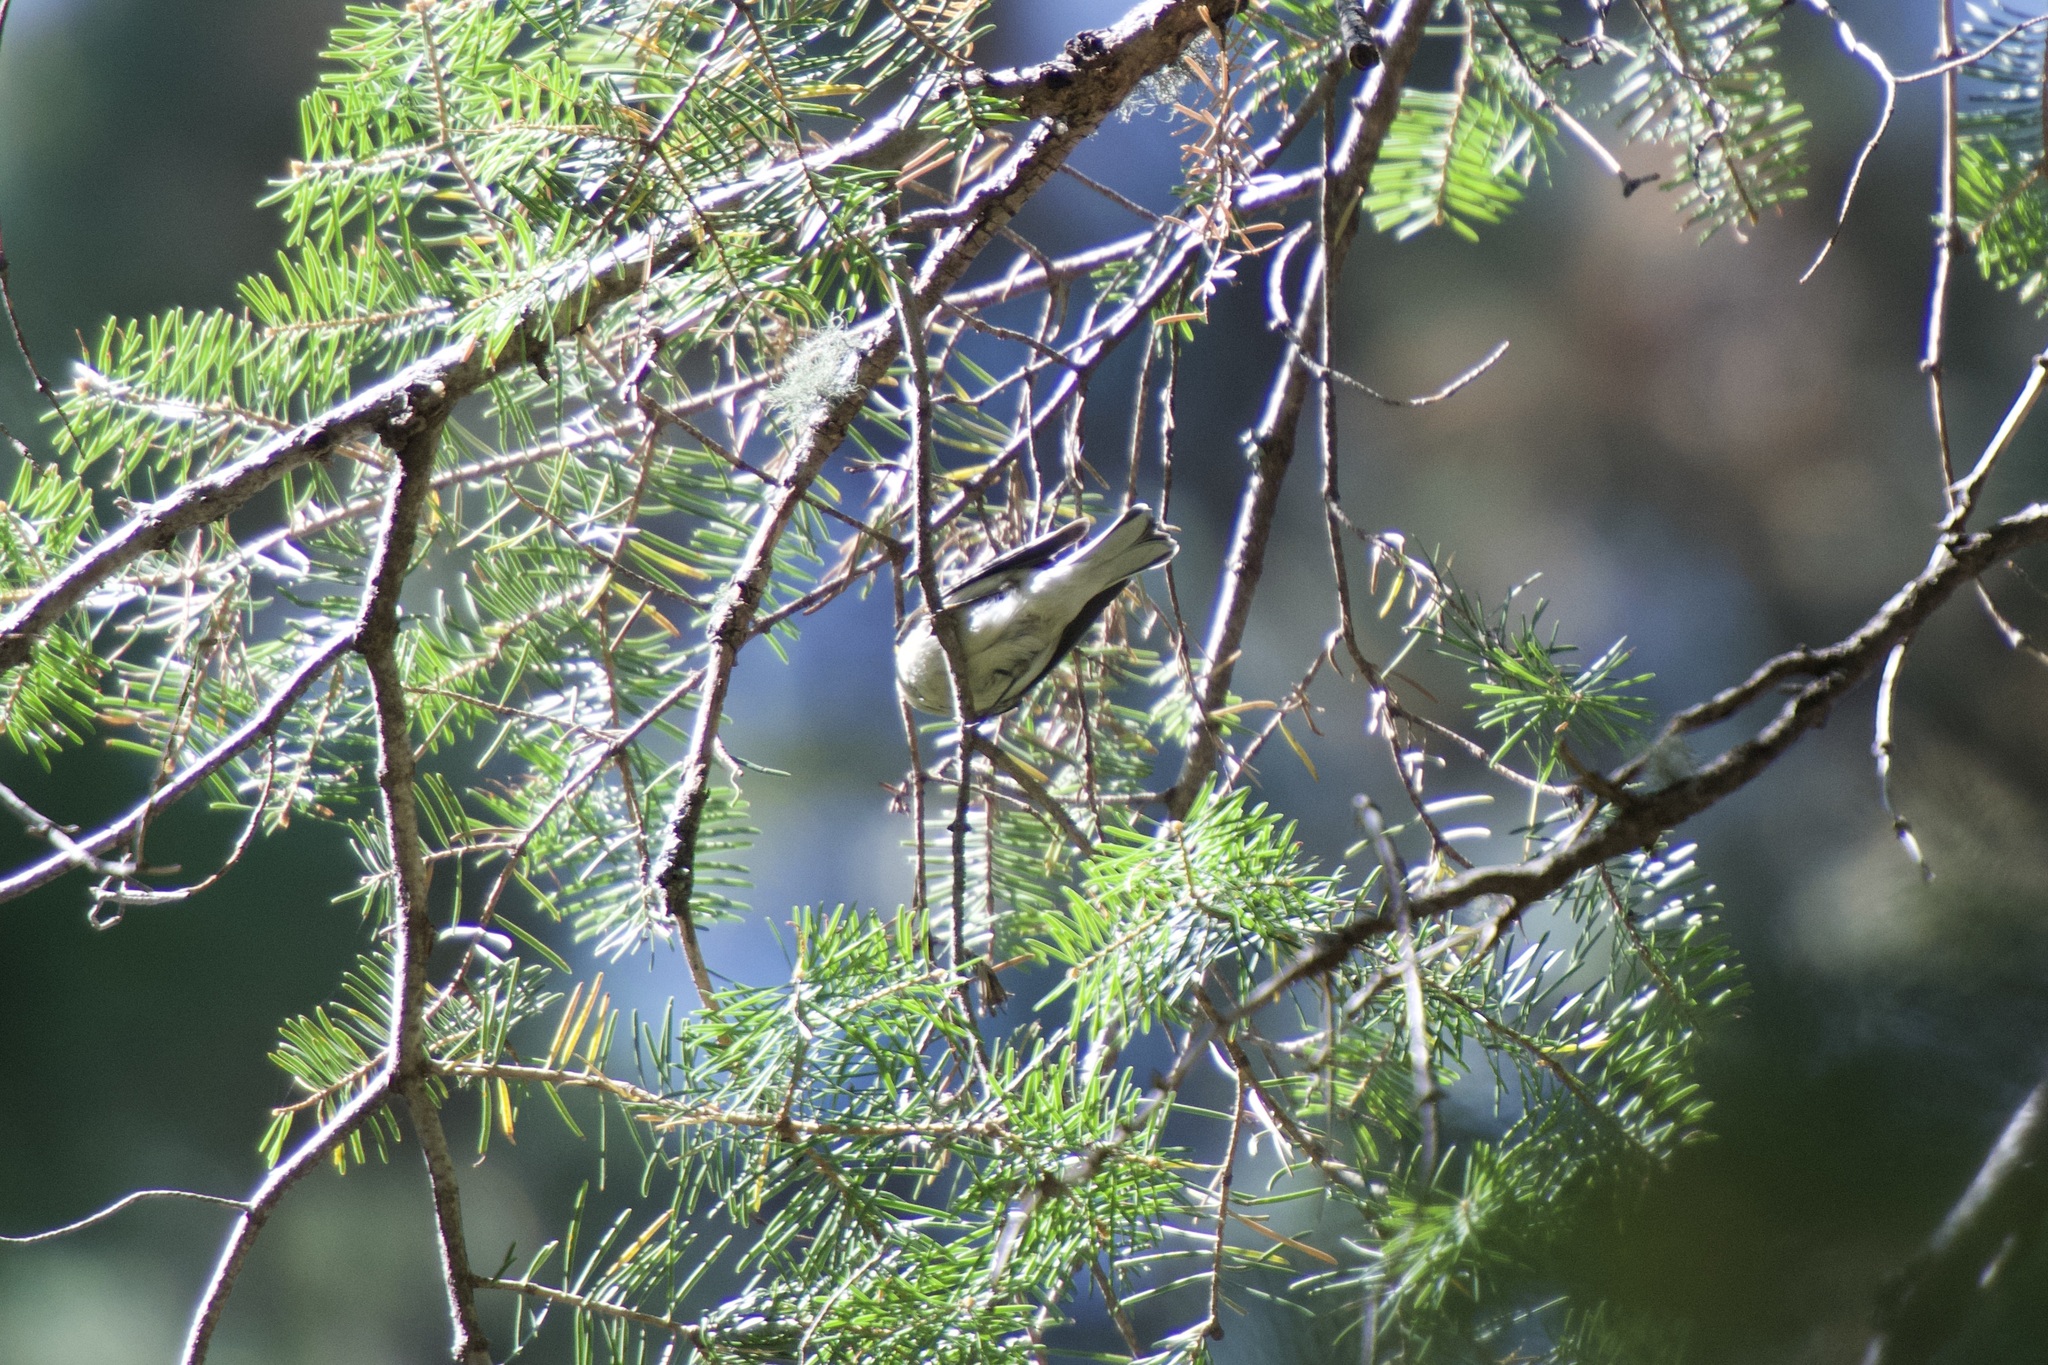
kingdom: Animalia
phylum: Chordata
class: Aves
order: Passeriformes
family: Parulidae
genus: Setophaga
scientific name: Setophaga occidentalis
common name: Hermit warbler
